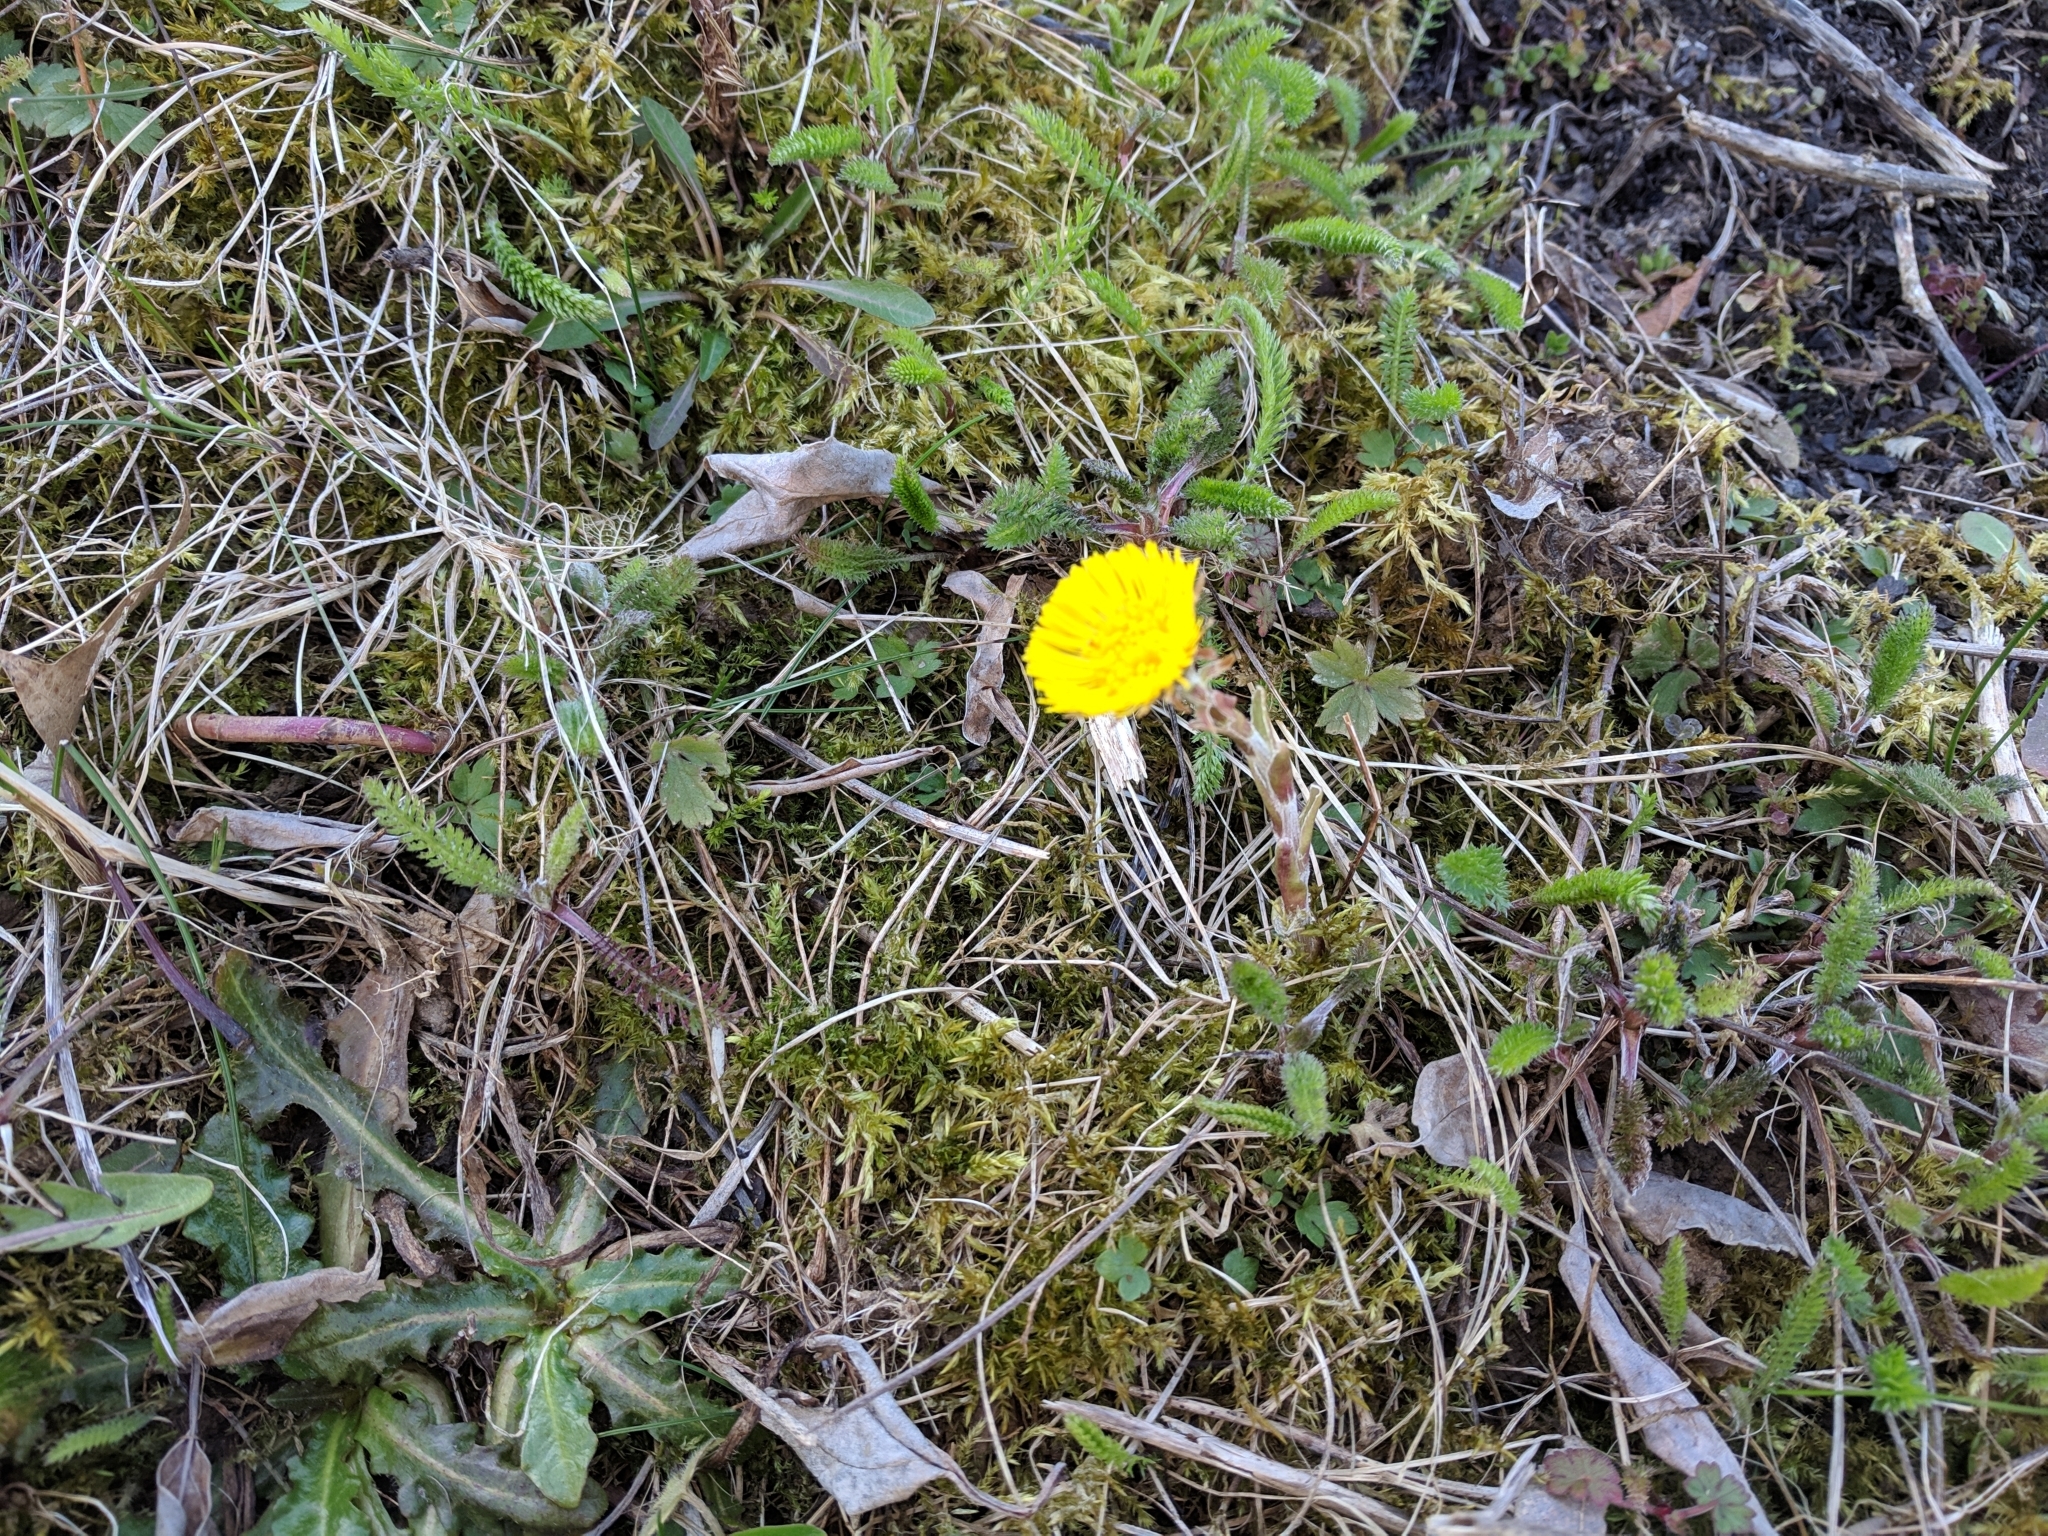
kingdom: Plantae
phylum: Tracheophyta
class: Magnoliopsida
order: Asterales
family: Asteraceae
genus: Tussilago
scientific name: Tussilago farfara
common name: Coltsfoot
